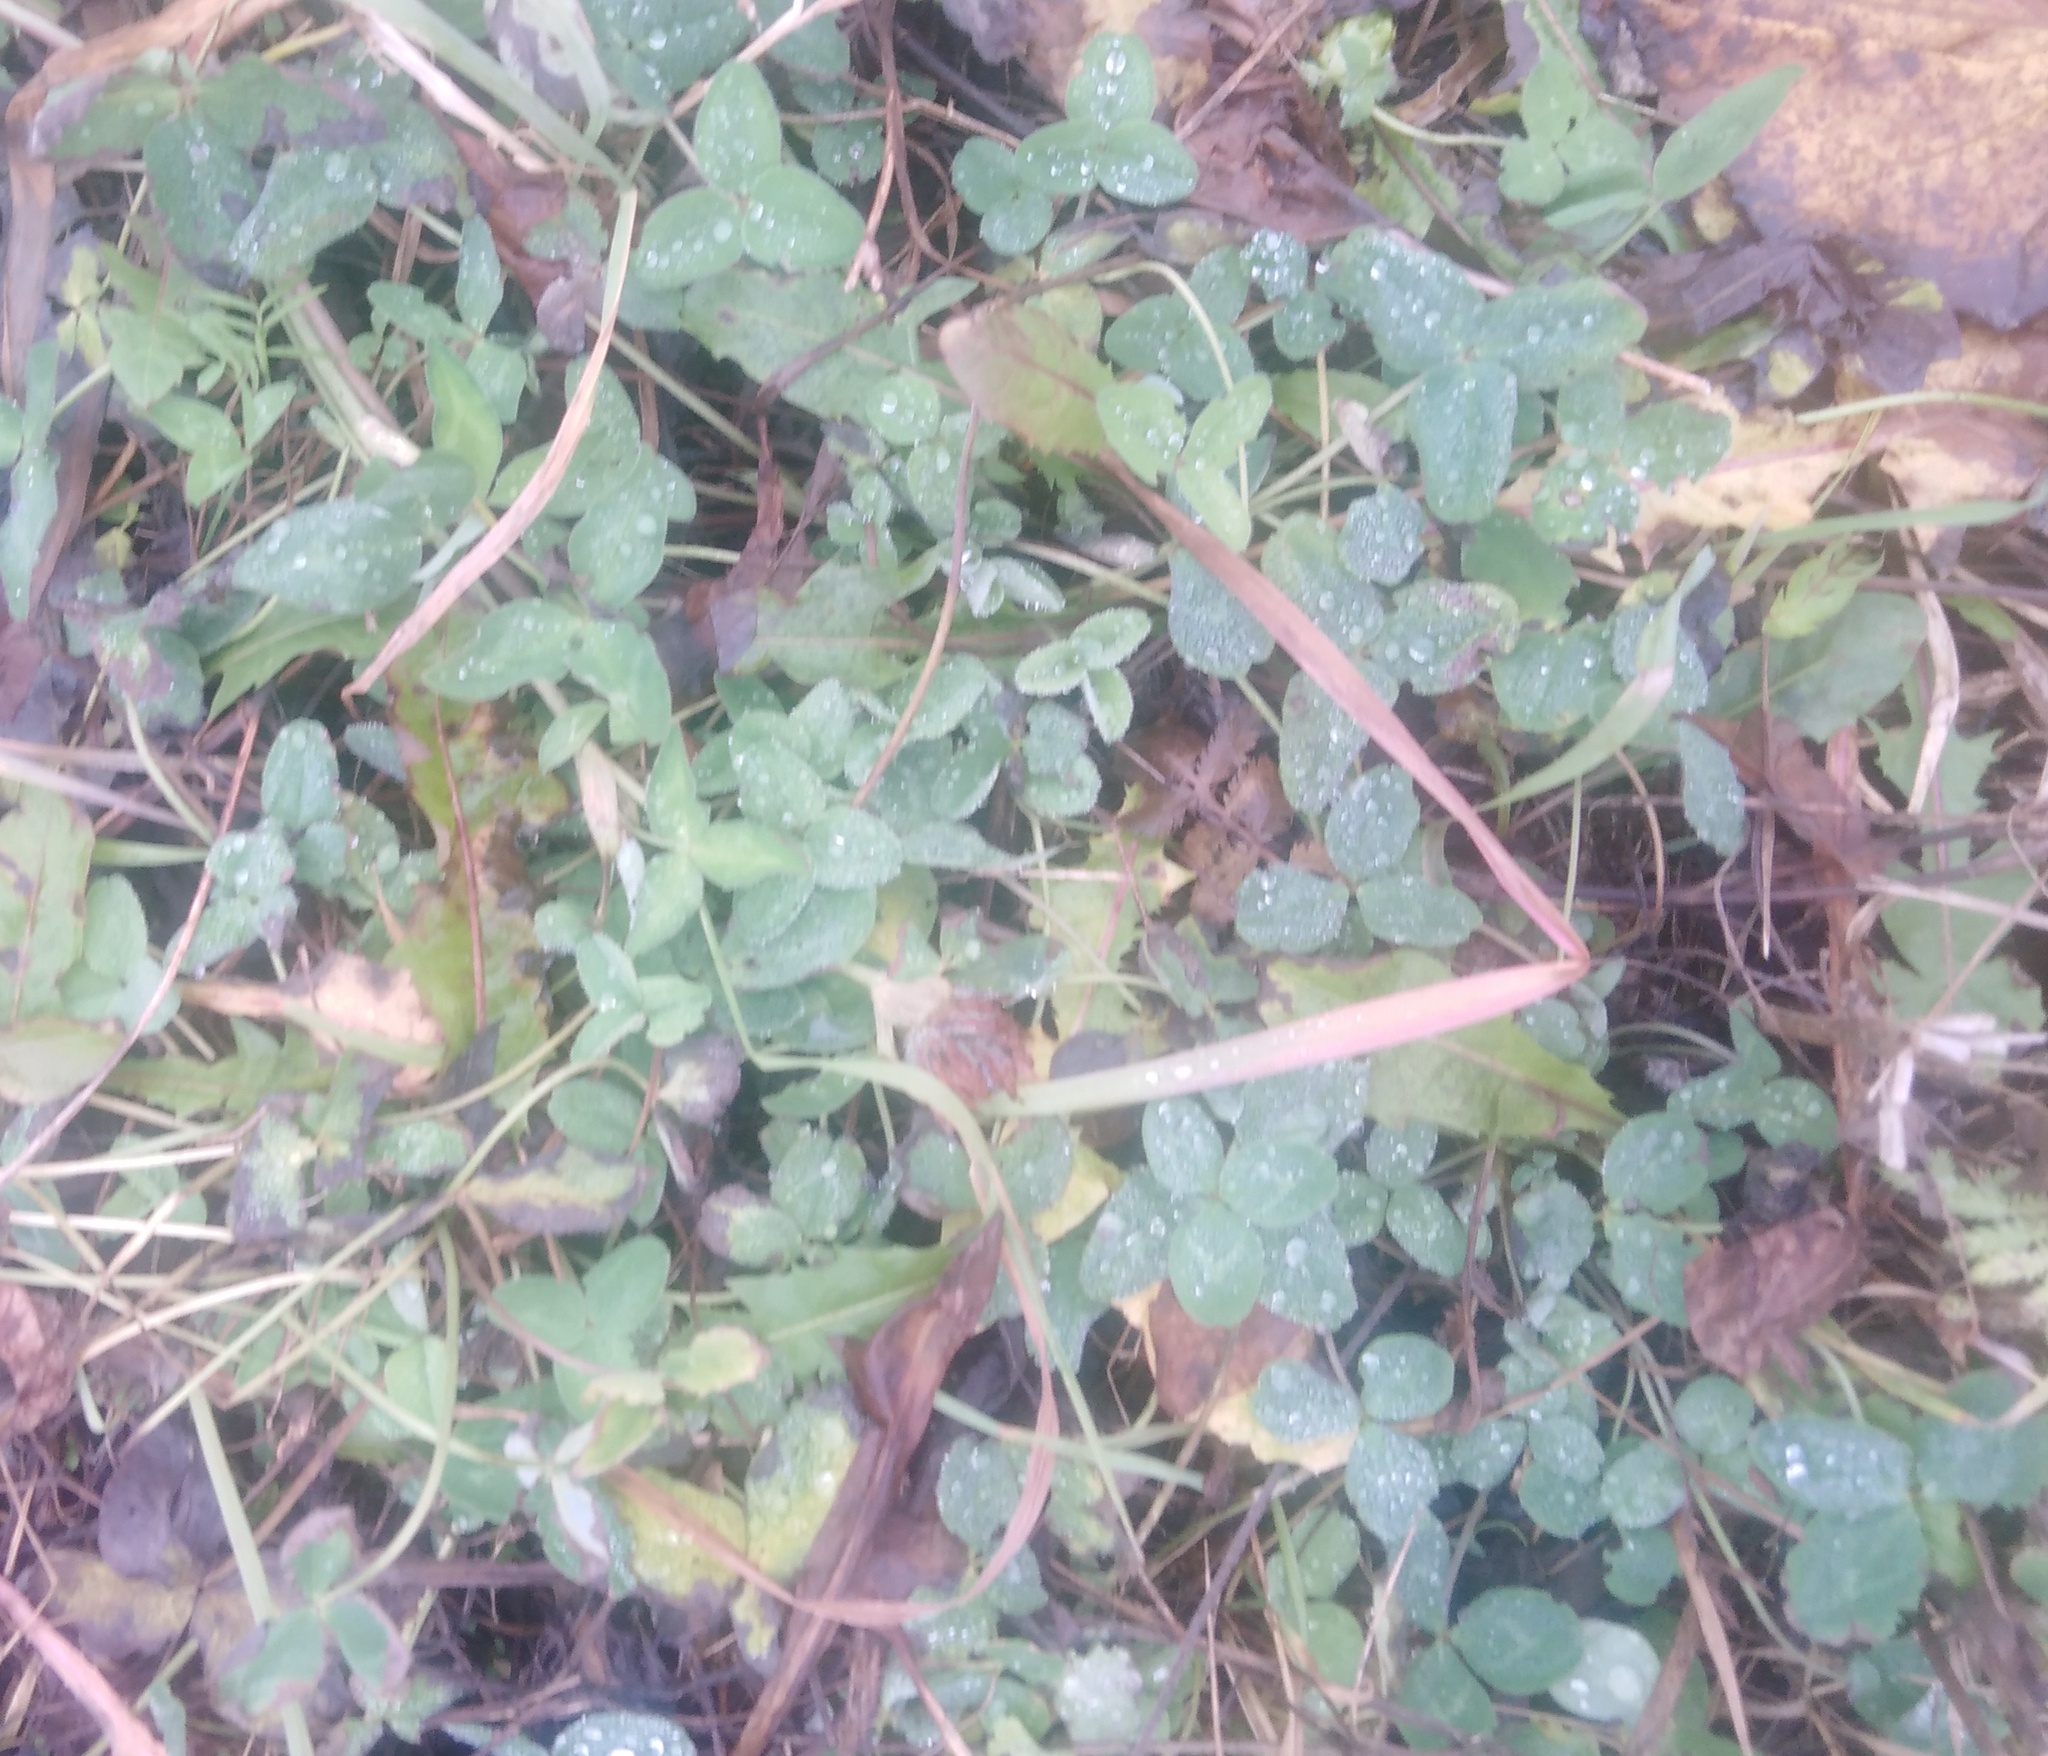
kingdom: Plantae
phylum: Tracheophyta
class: Magnoliopsida
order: Fabales
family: Fabaceae
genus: Trifolium
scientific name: Trifolium repens
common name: White clover
